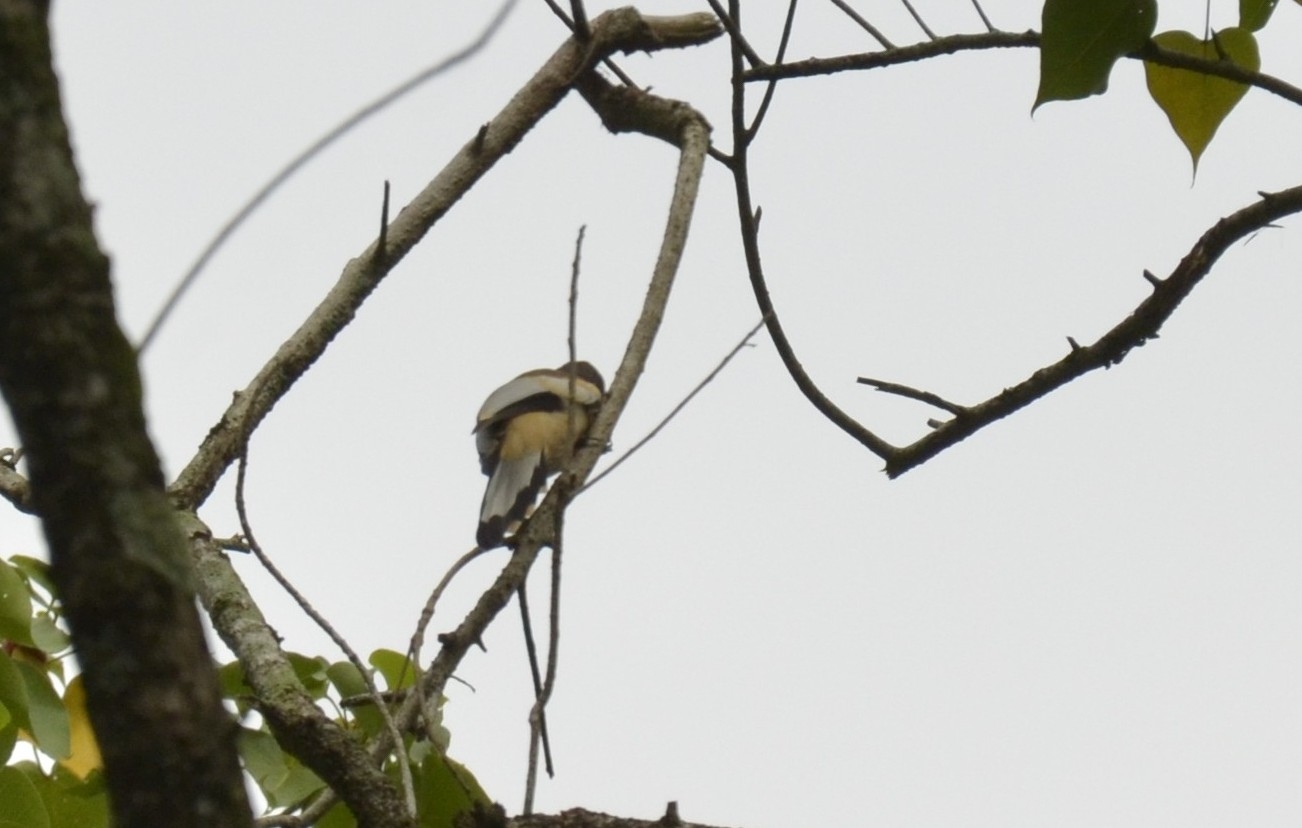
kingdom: Animalia
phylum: Chordata
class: Aves
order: Passeriformes
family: Corvidae
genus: Dendrocitta
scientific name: Dendrocitta vagabunda
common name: Rufous treepie
